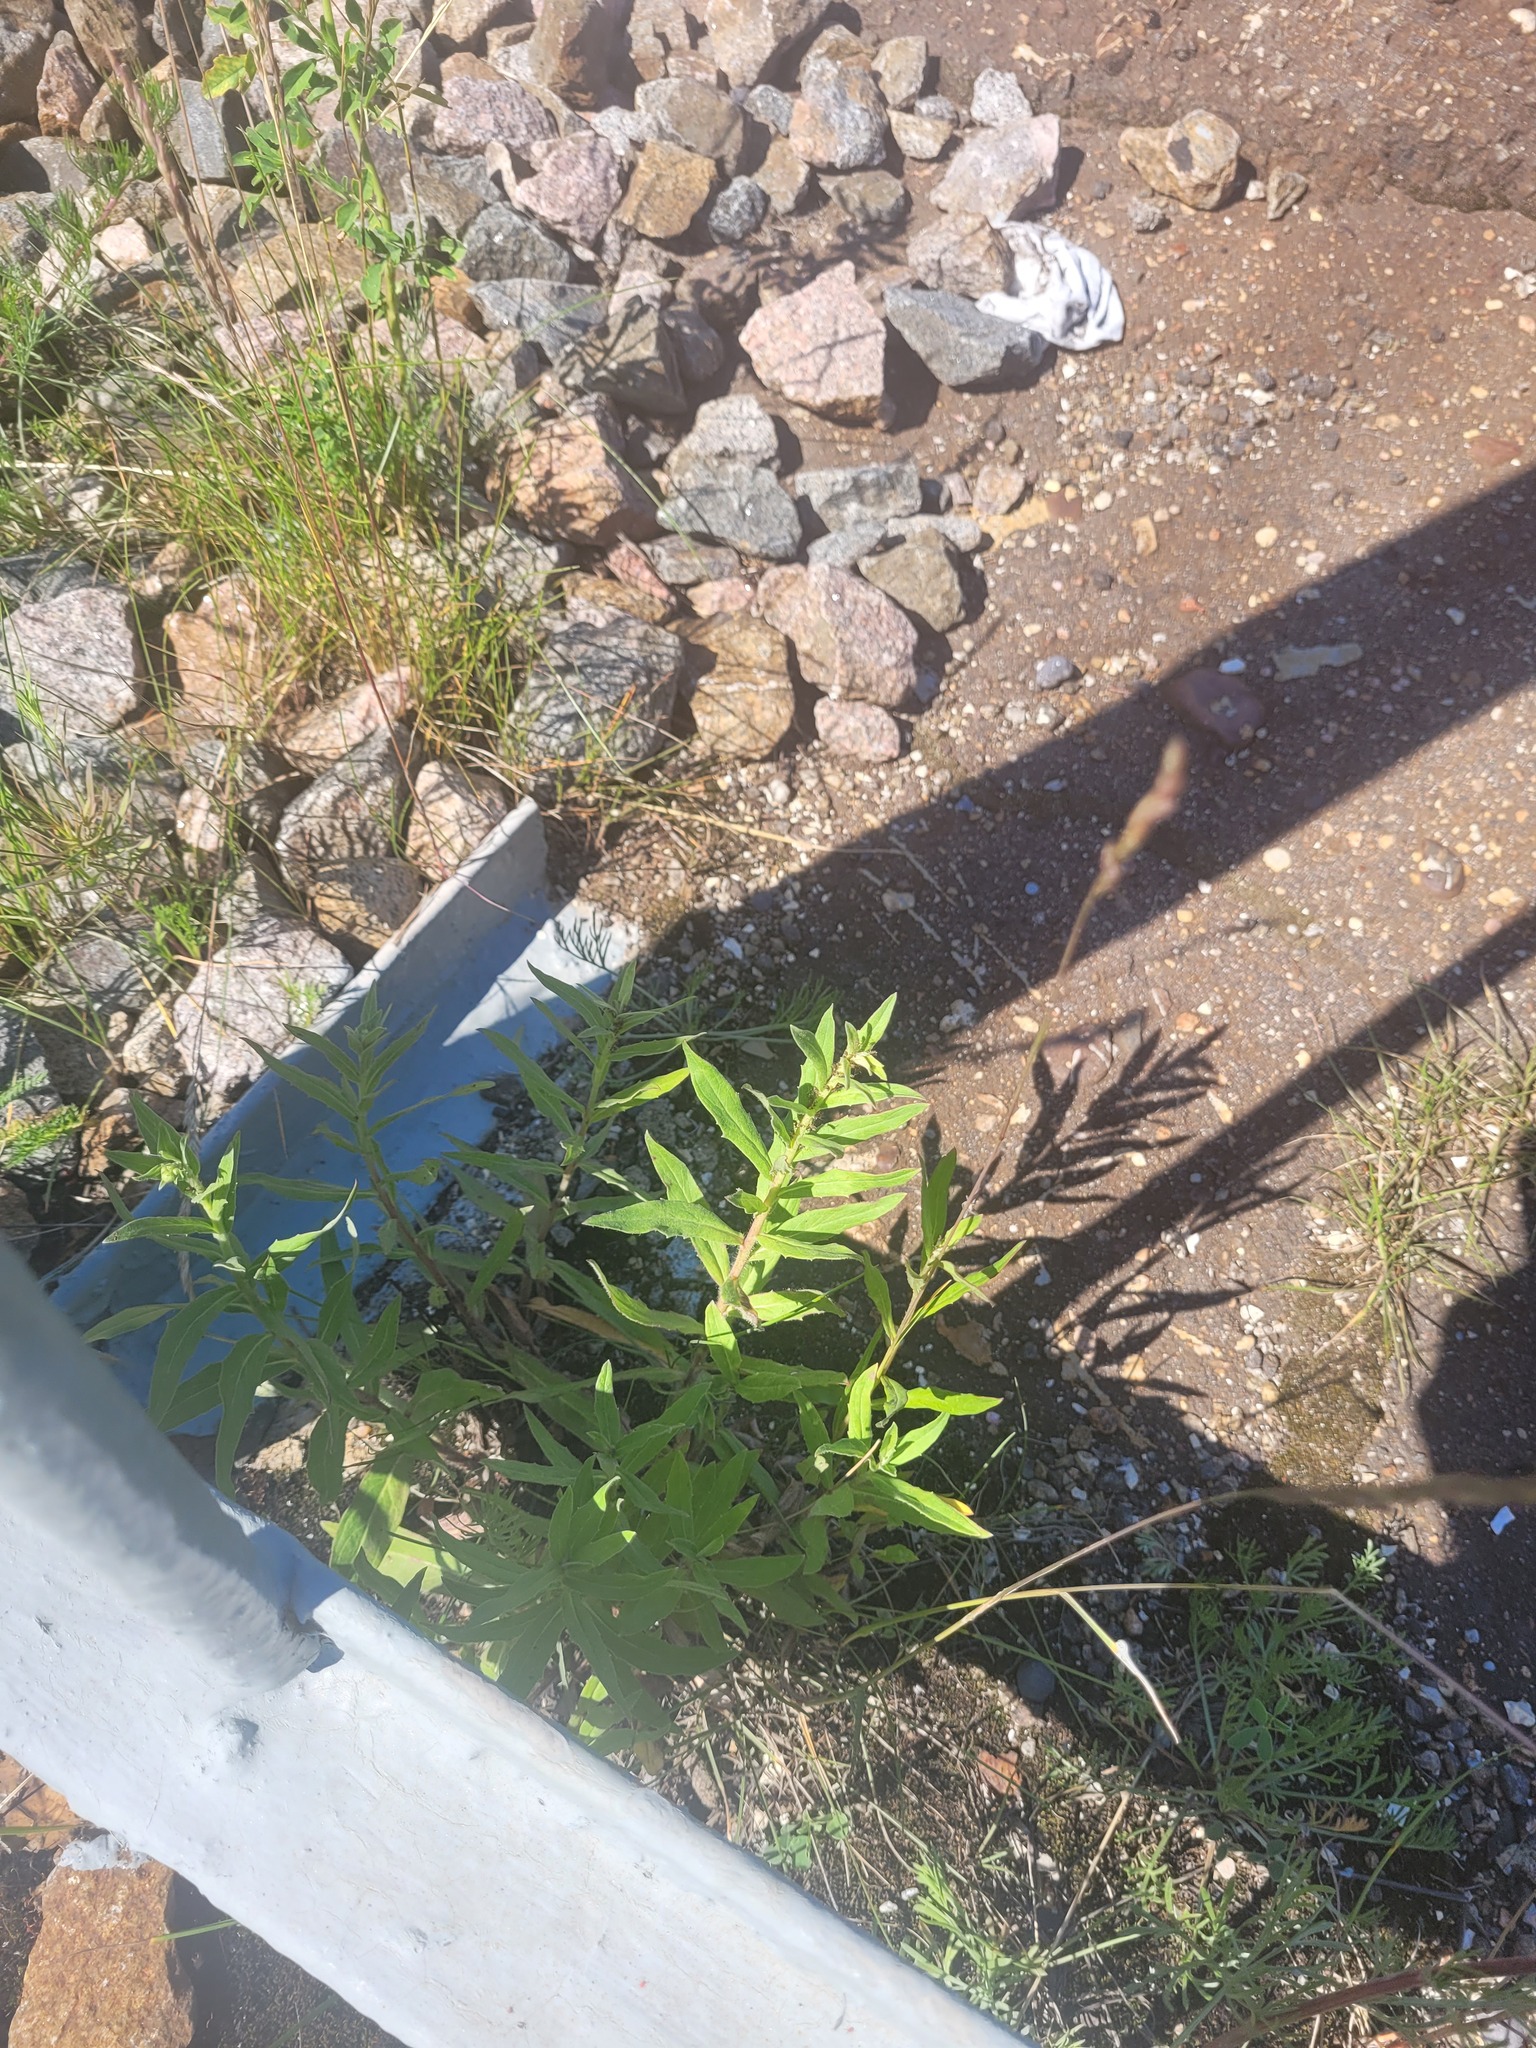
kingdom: Plantae
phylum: Tracheophyta
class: Magnoliopsida
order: Asterales
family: Asteraceae
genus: Hieracium
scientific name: Hieracium umbellatum
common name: Northern hawkweed
